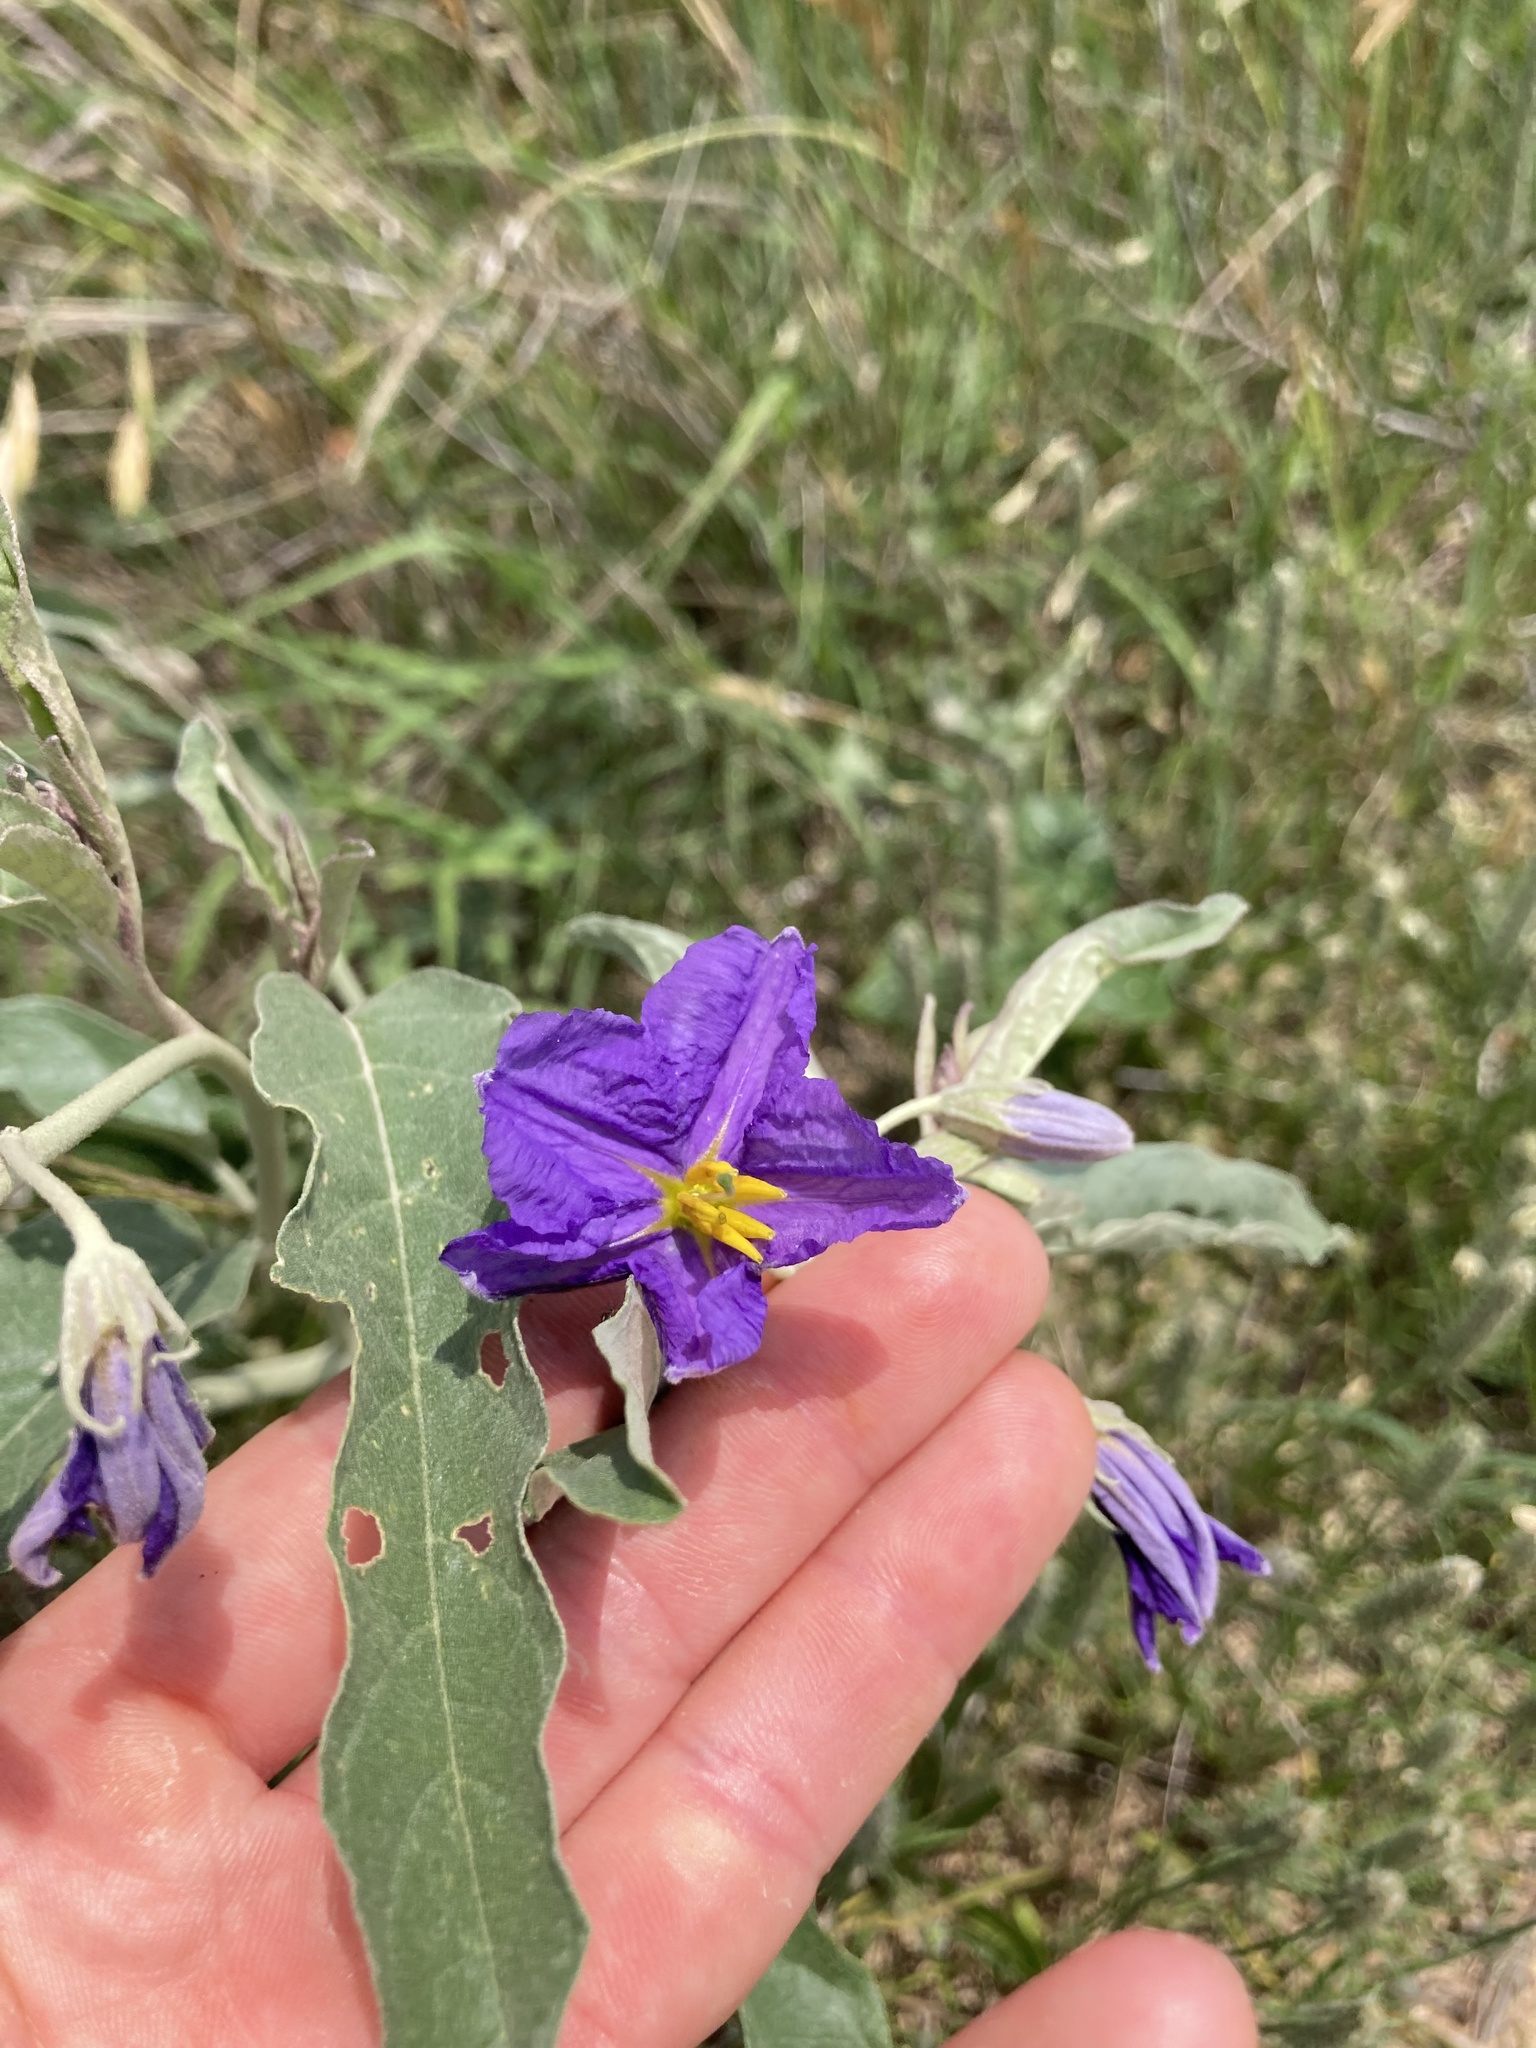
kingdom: Plantae
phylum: Tracheophyta
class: Magnoliopsida
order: Solanales
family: Solanaceae
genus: Solanum
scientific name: Solanum elaeagnifolium
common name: Silverleaf nightshade
